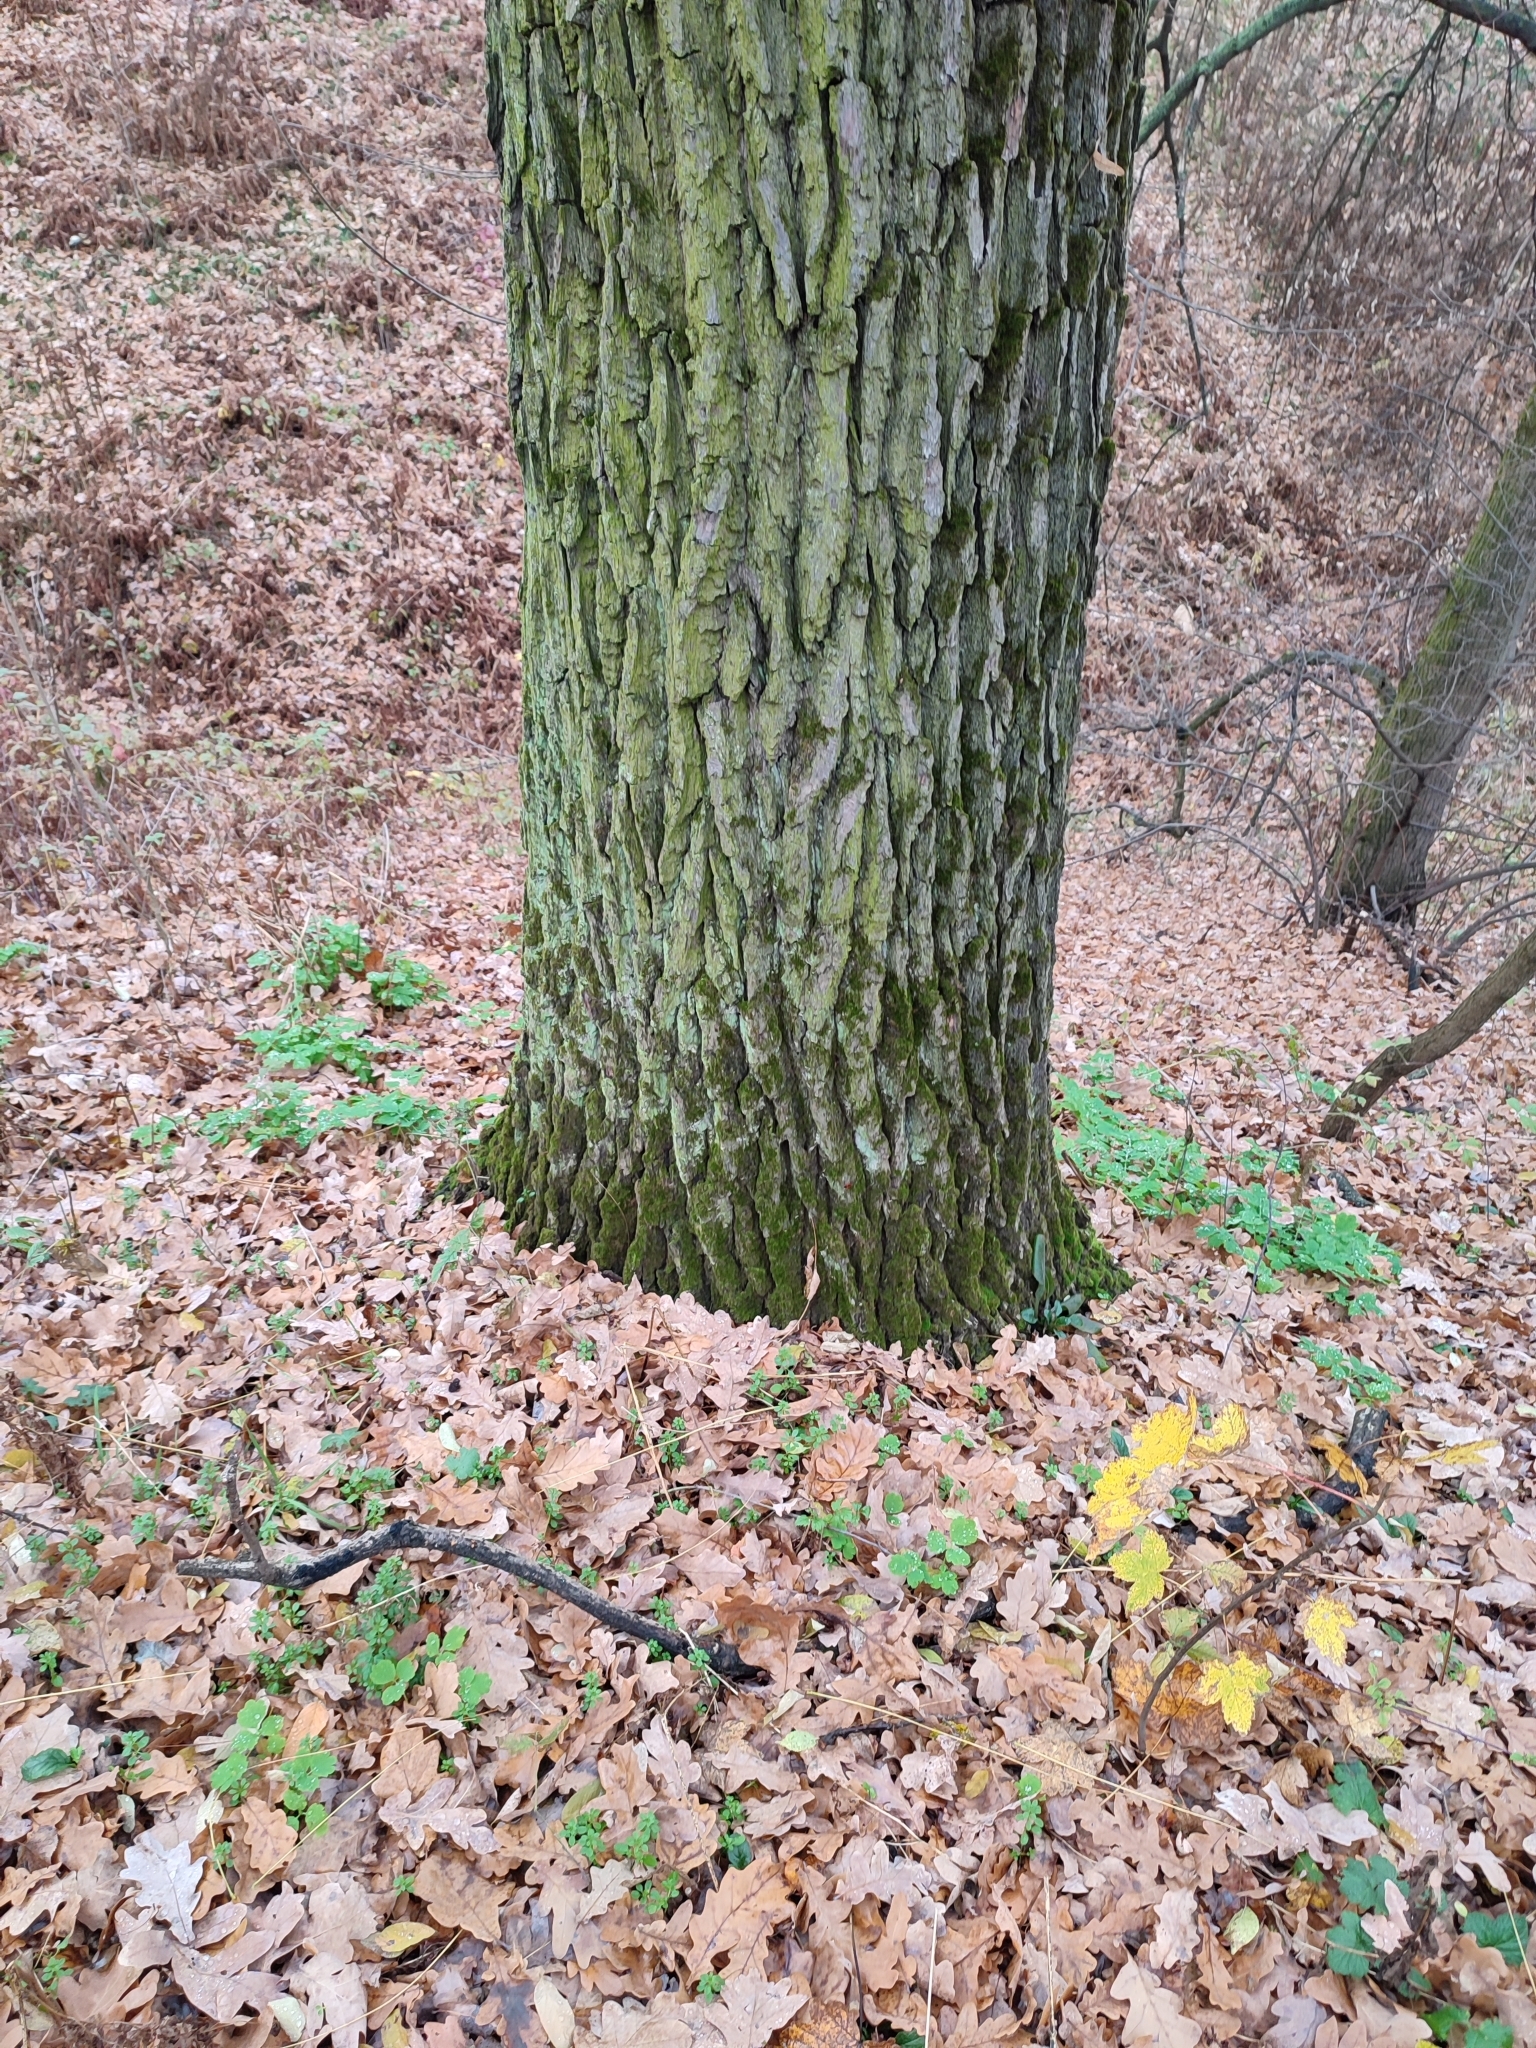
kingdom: Plantae
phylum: Tracheophyta
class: Magnoliopsida
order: Fagales
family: Fagaceae
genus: Quercus
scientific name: Quercus robur
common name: Pedunculate oak
